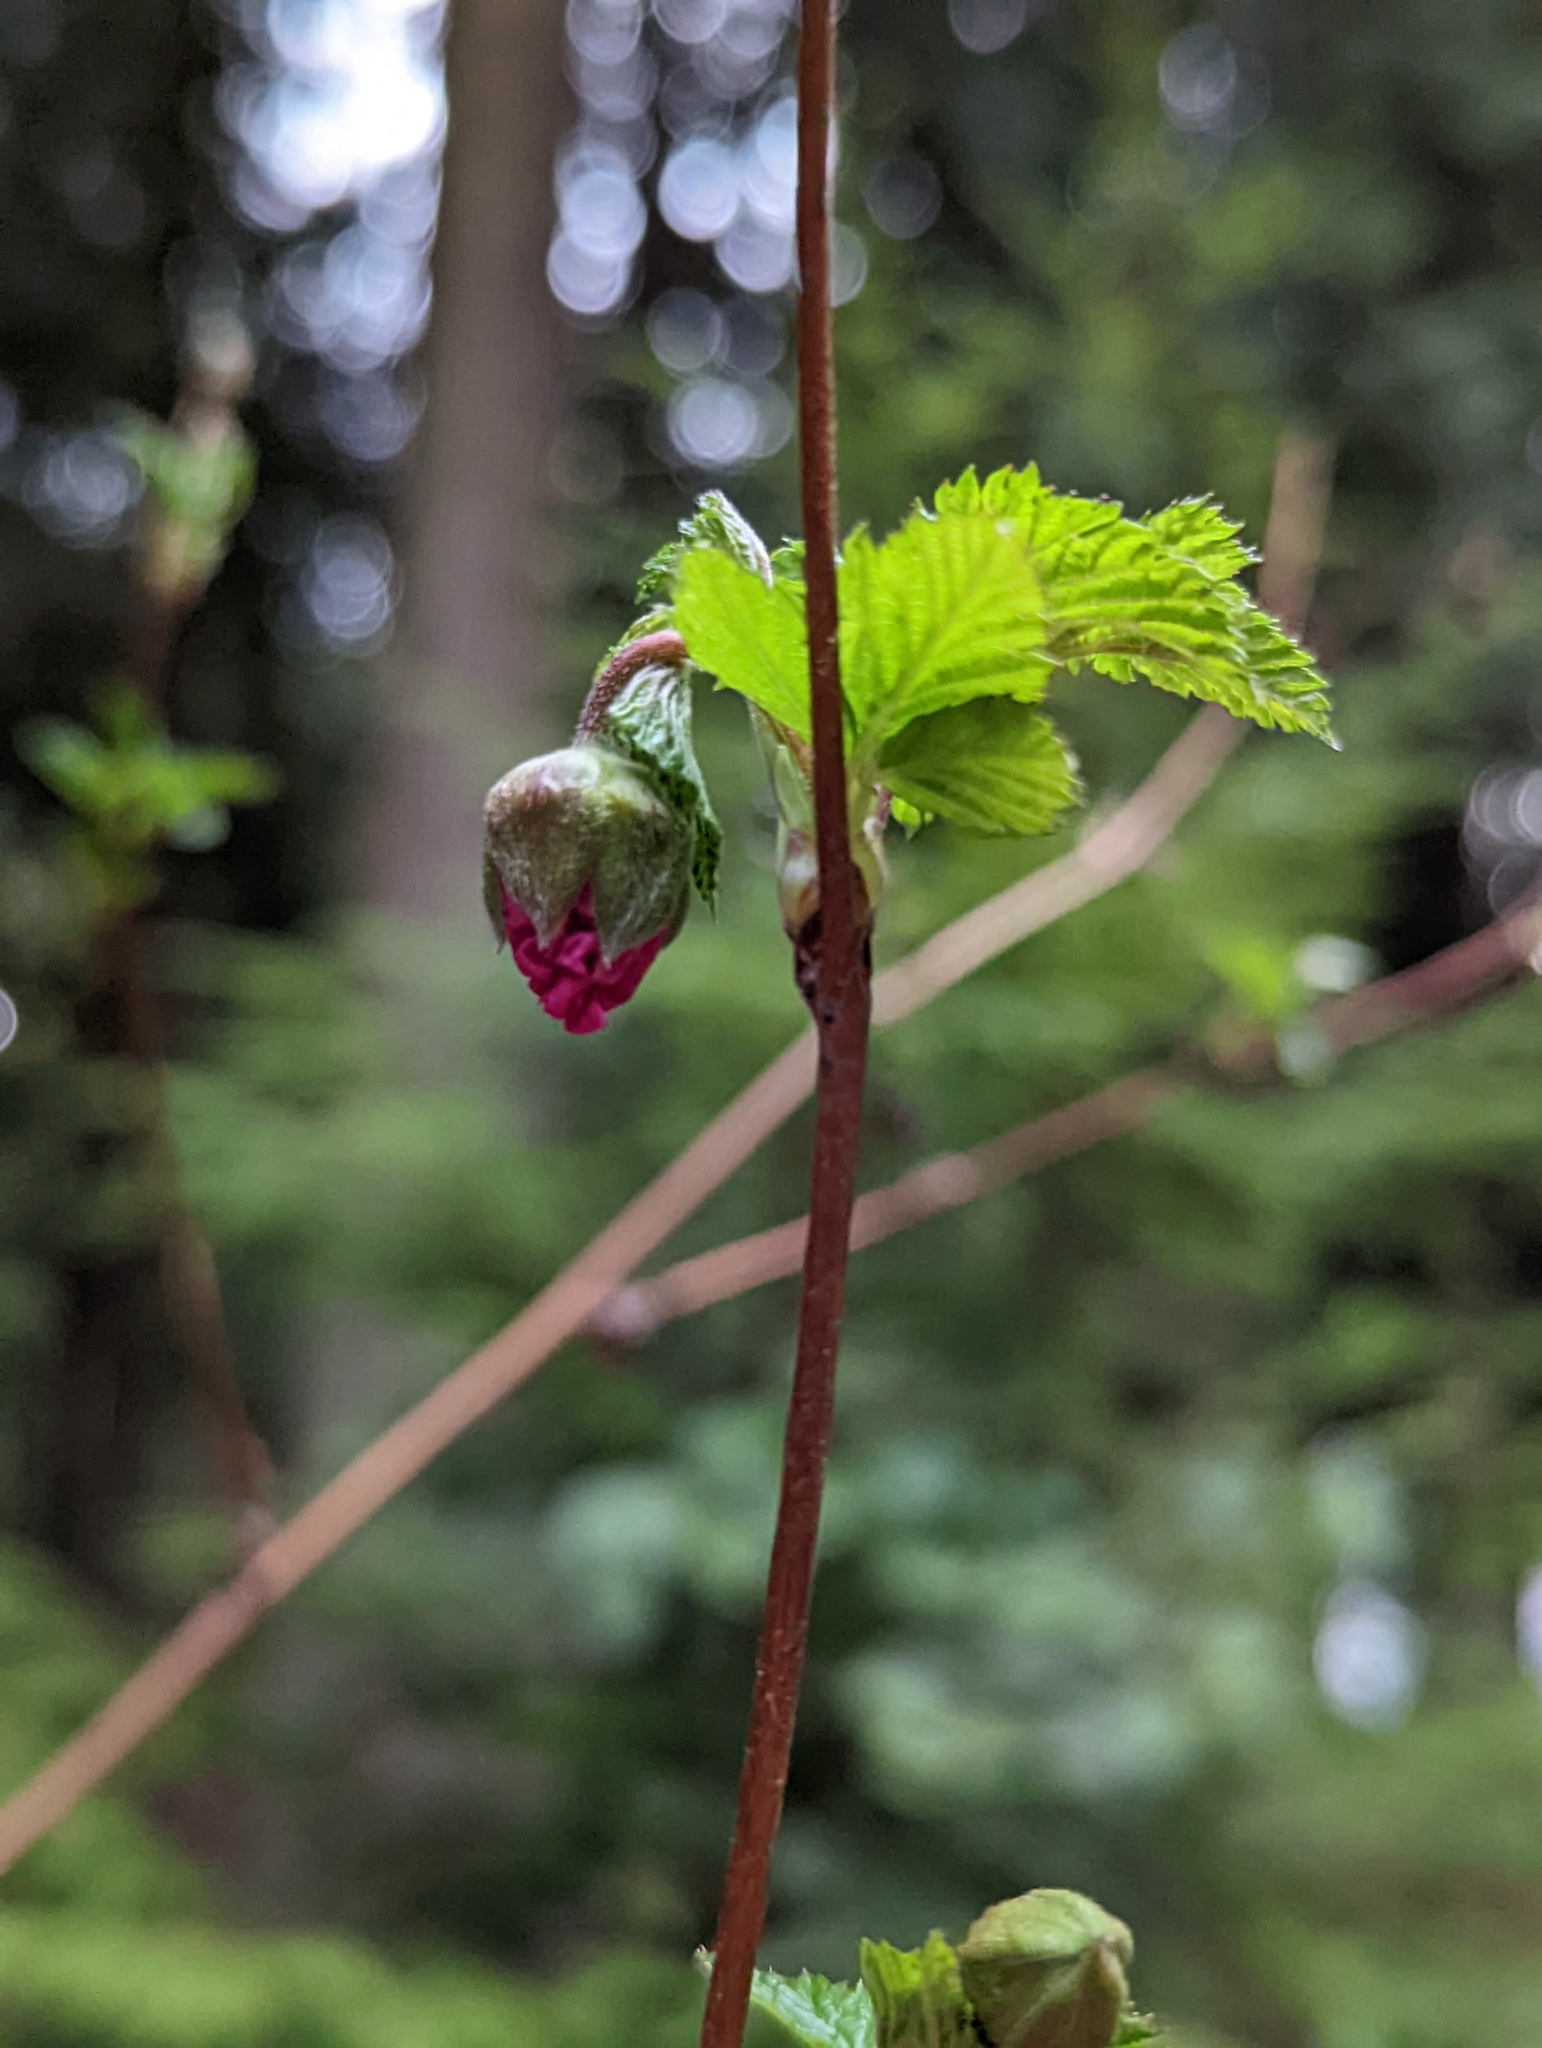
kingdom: Plantae
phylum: Tracheophyta
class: Magnoliopsida
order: Rosales
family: Rosaceae
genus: Rubus
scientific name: Rubus spectabilis
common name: Salmonberry
